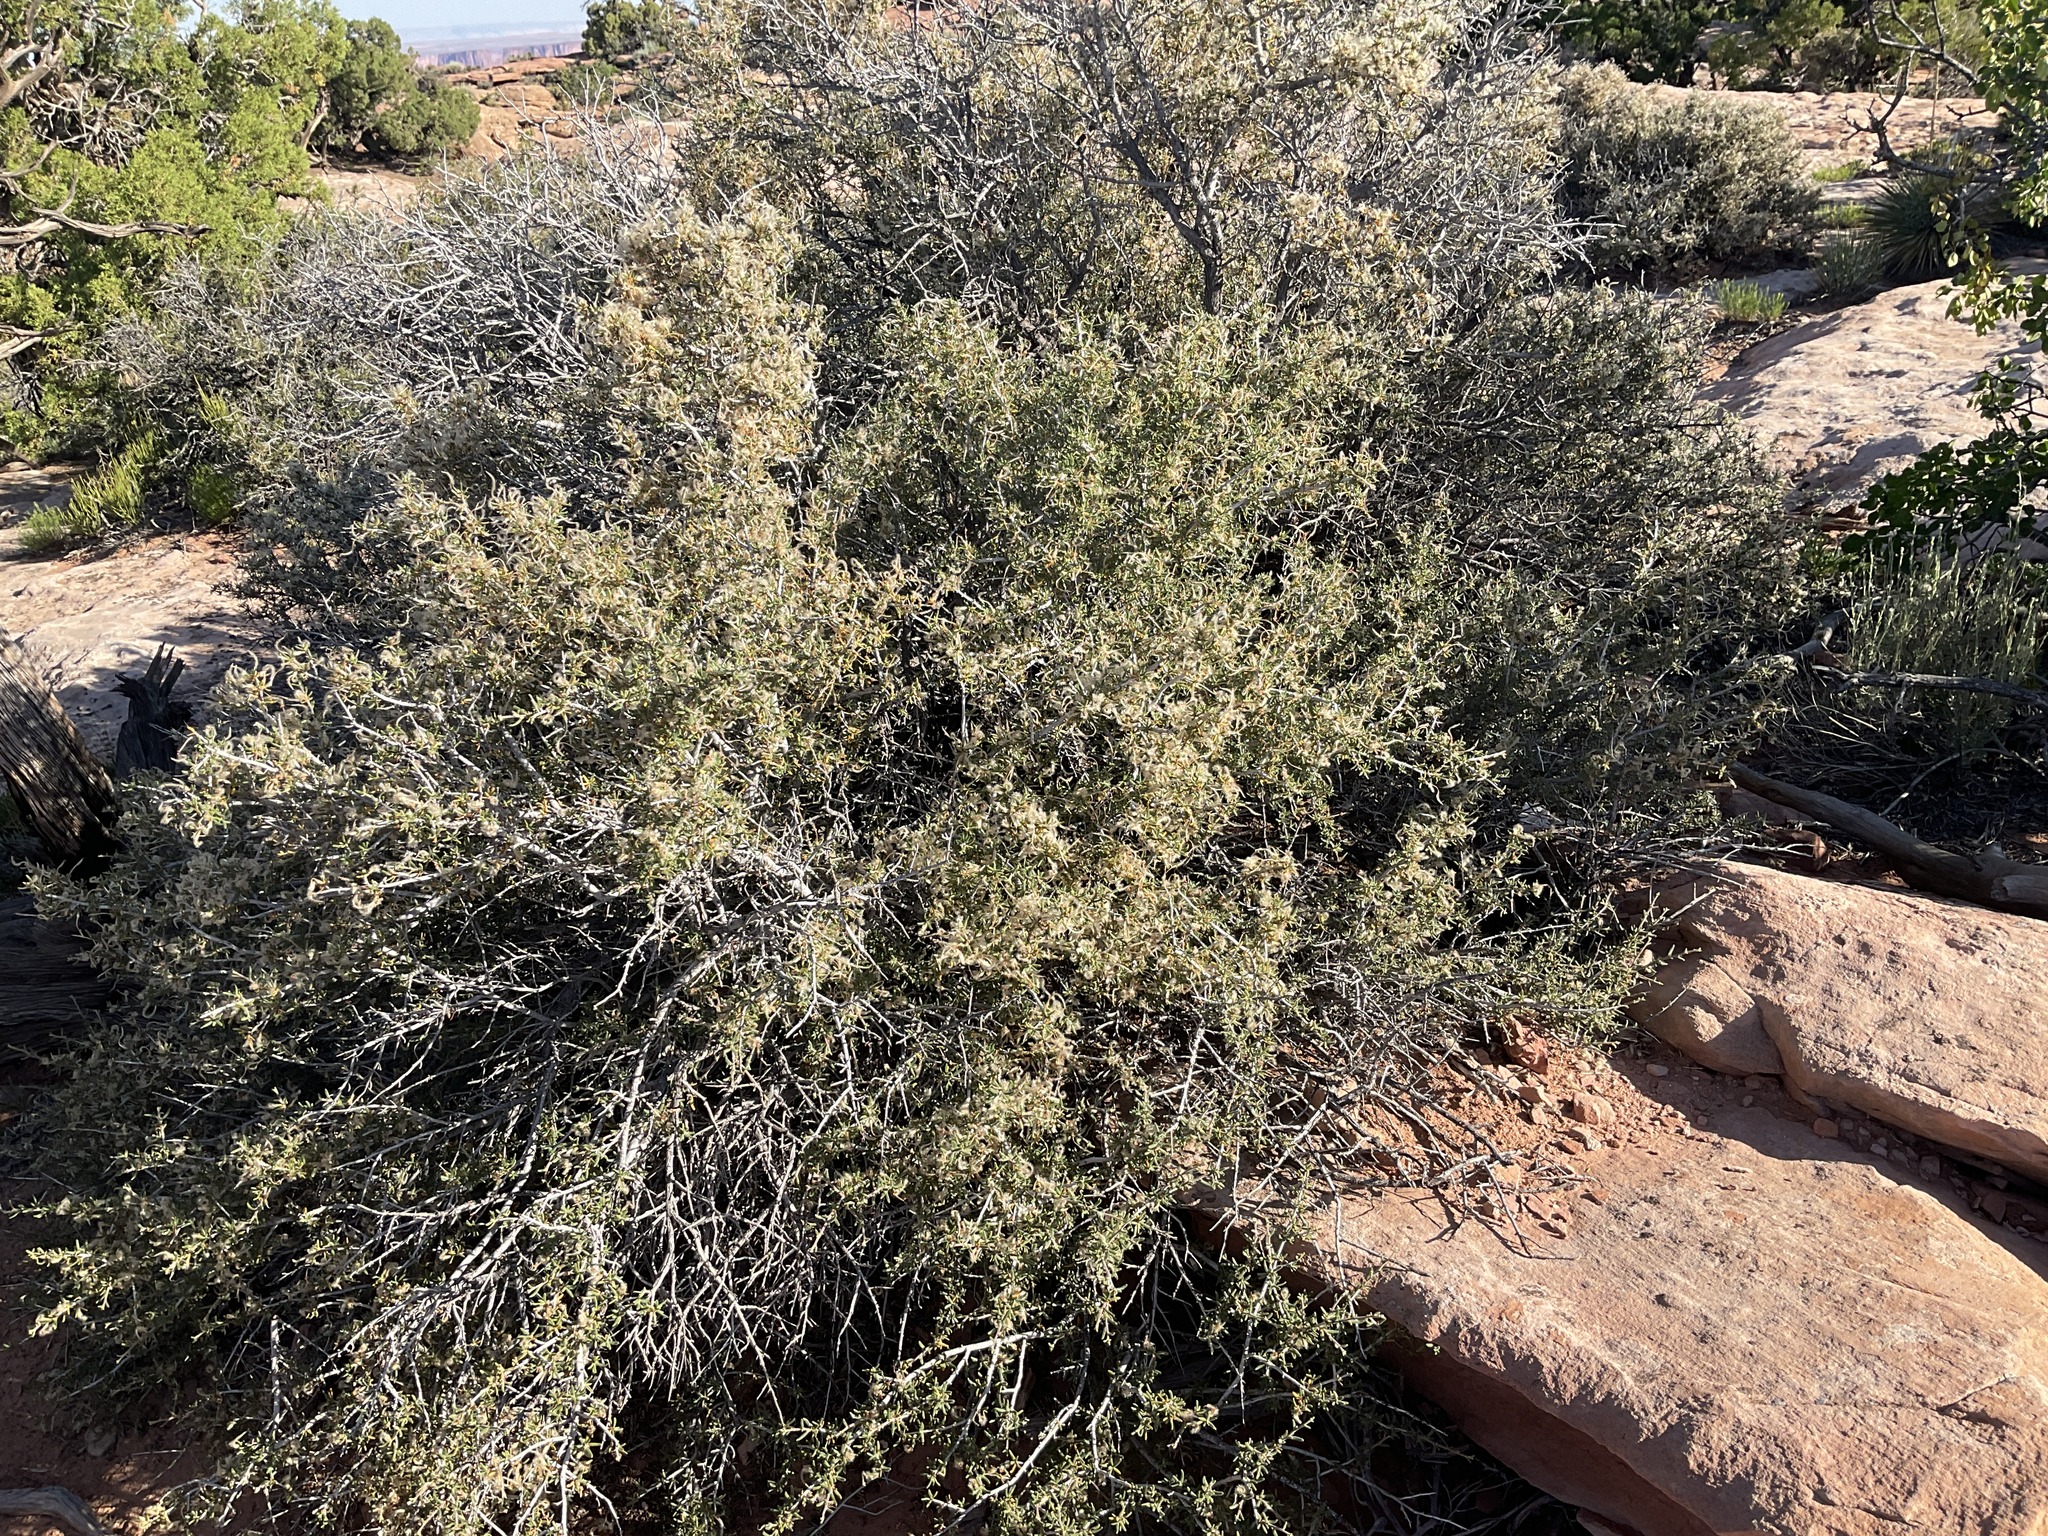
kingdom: Plantae
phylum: Tracheophyta
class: Magnoliopsida
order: Rosales
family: Rosaceae
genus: Cercocarpus
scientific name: Cercocarpus intricatus
